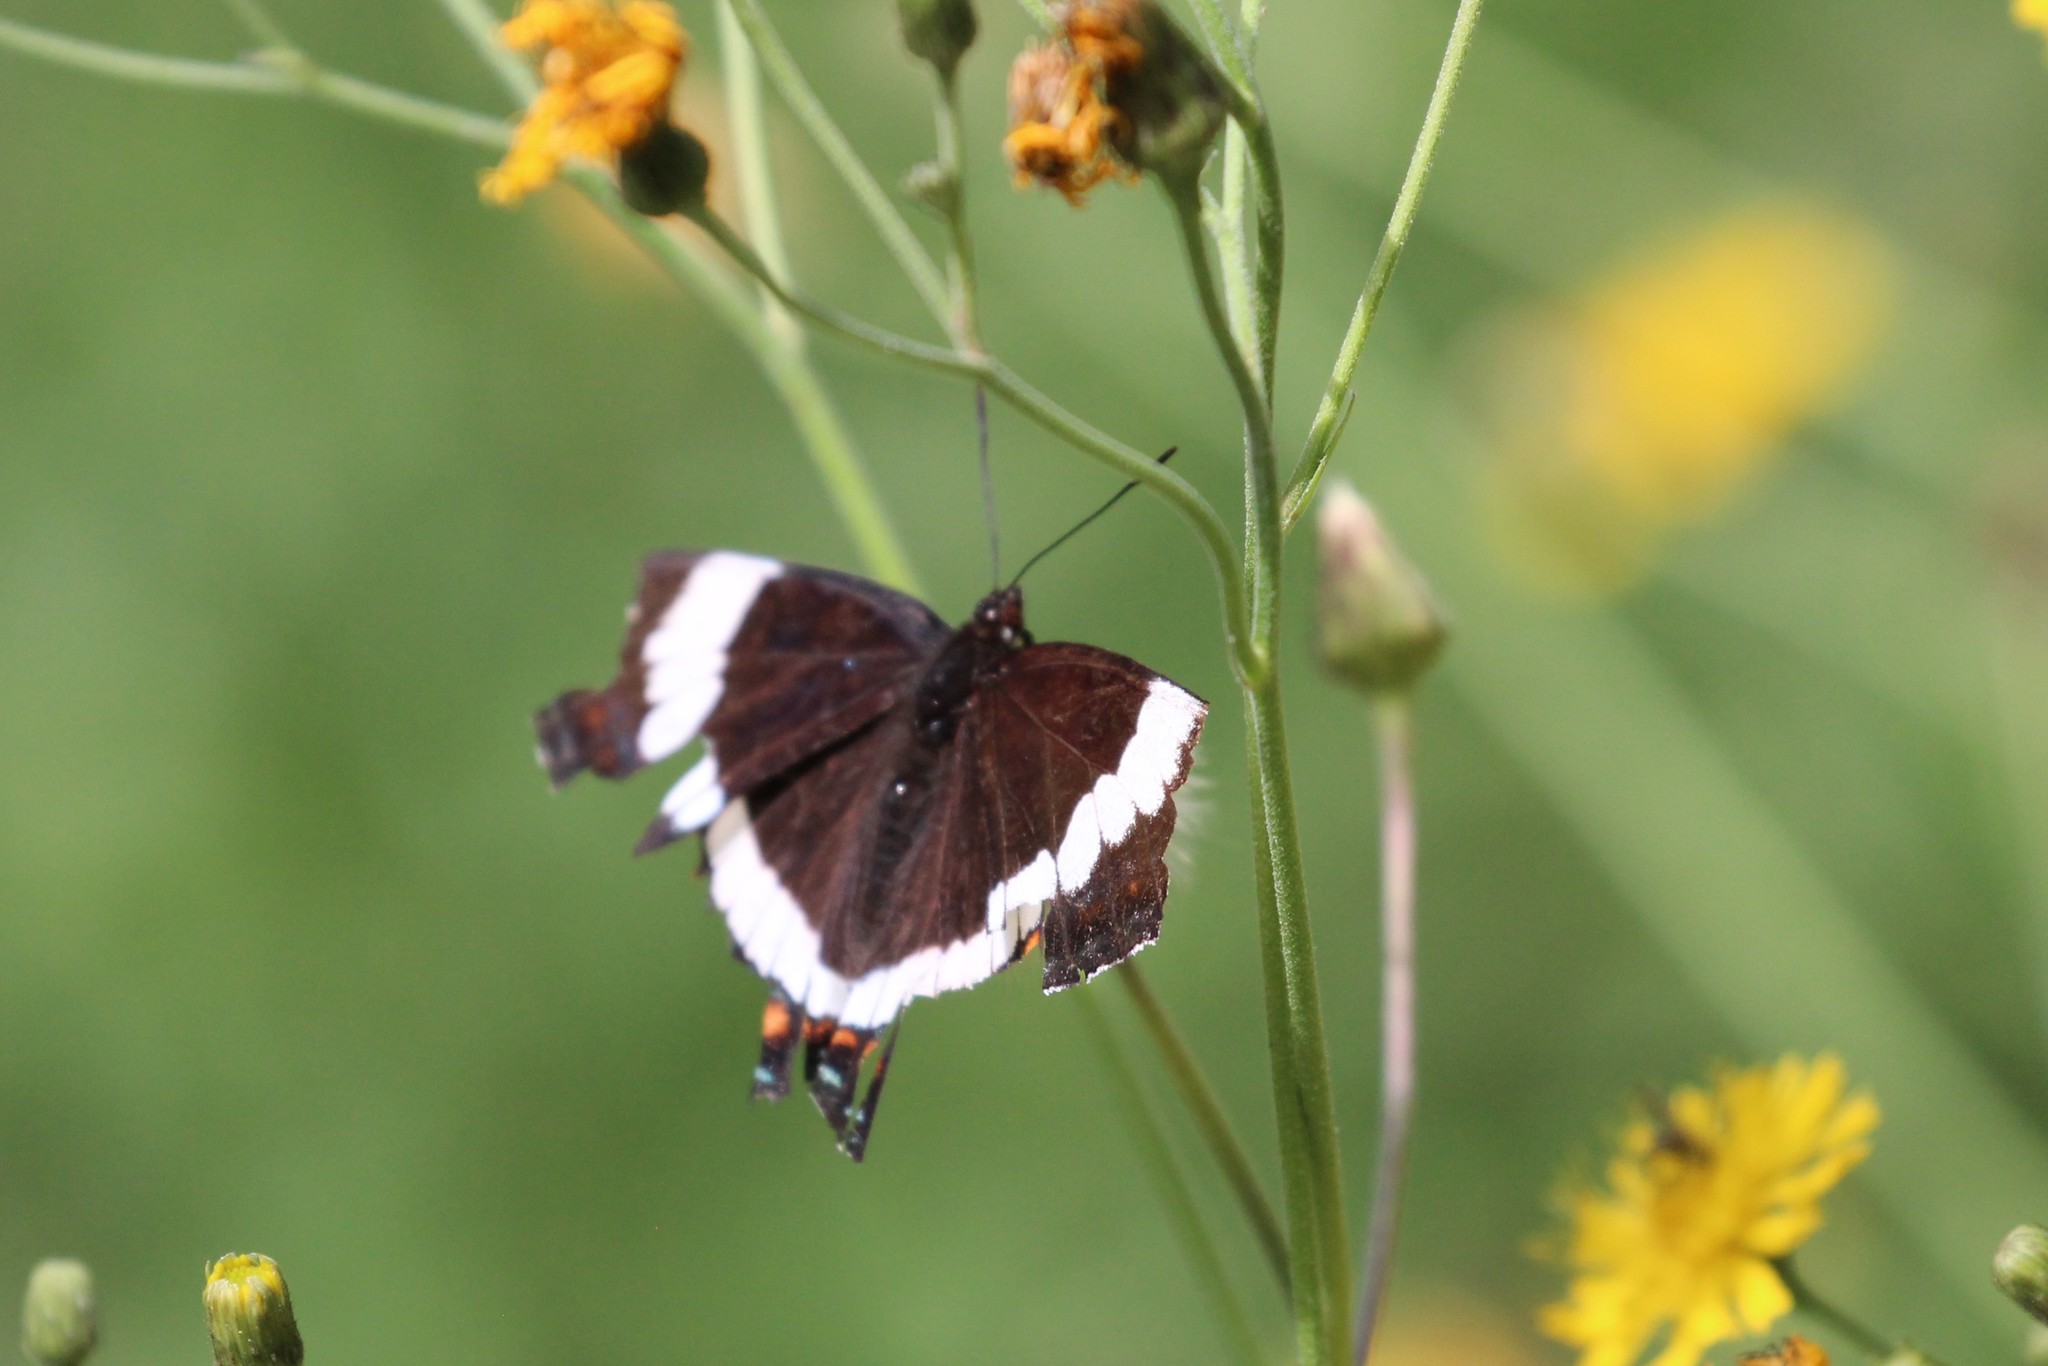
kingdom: Animalia
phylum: Arthropoda
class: Insecta
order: Lepidoptera
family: Nymphalidae
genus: Limenitis
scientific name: Limenitis arthemis
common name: Red-spotted admiral
